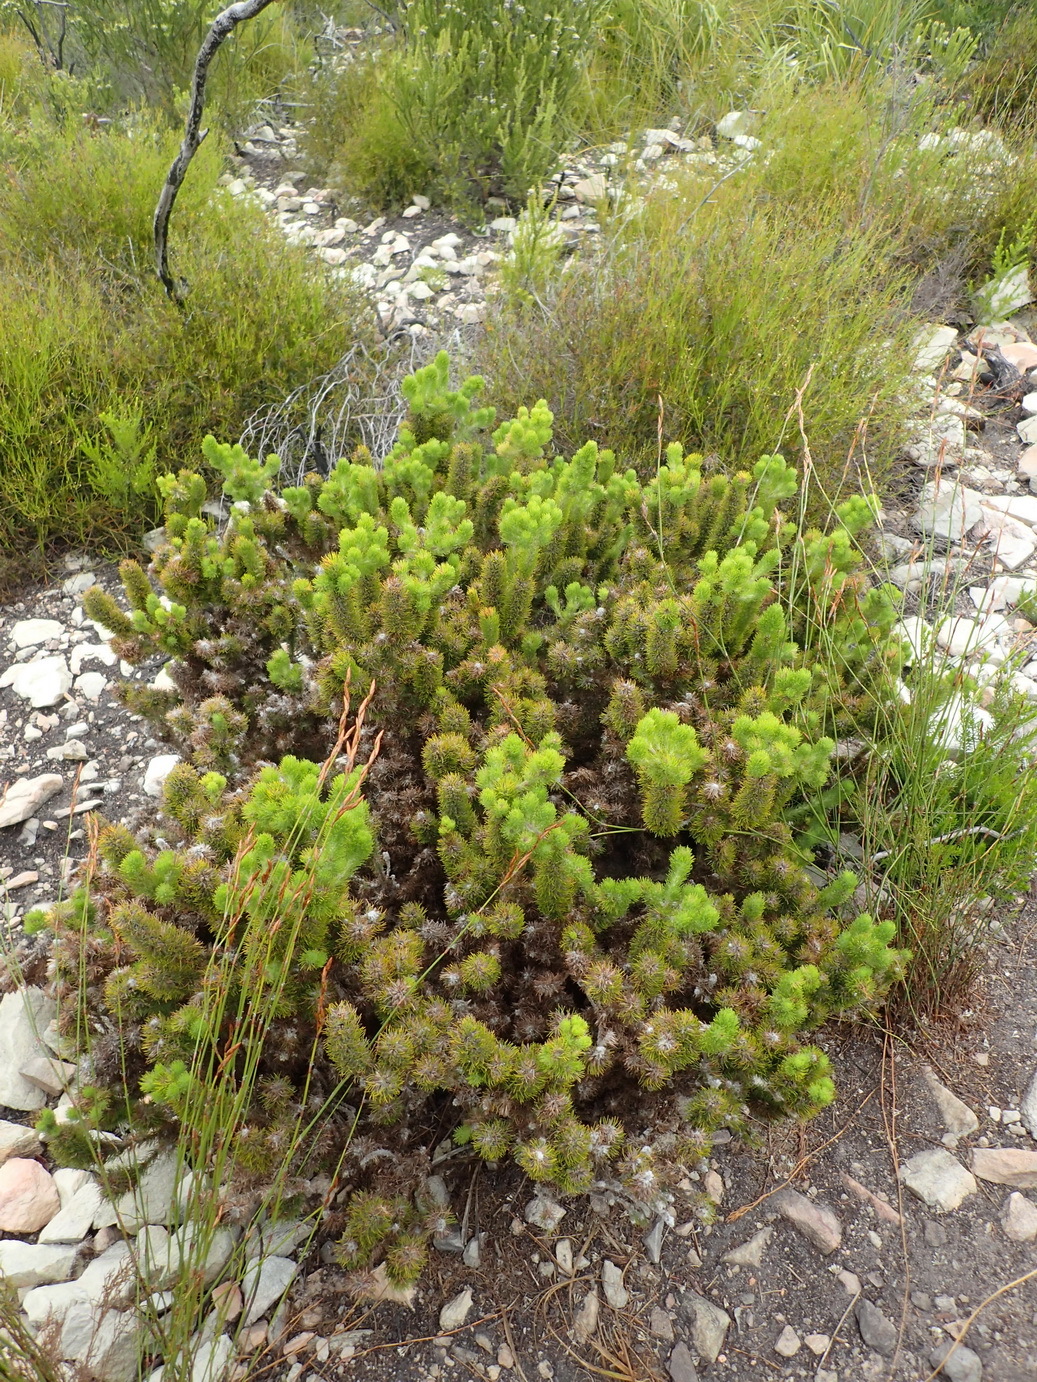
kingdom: Plantae
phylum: Tracheophyta
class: Magnoliopsida
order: Fabales
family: Fabaceae
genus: Aspalathus
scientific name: Aspalathus alopecurus
